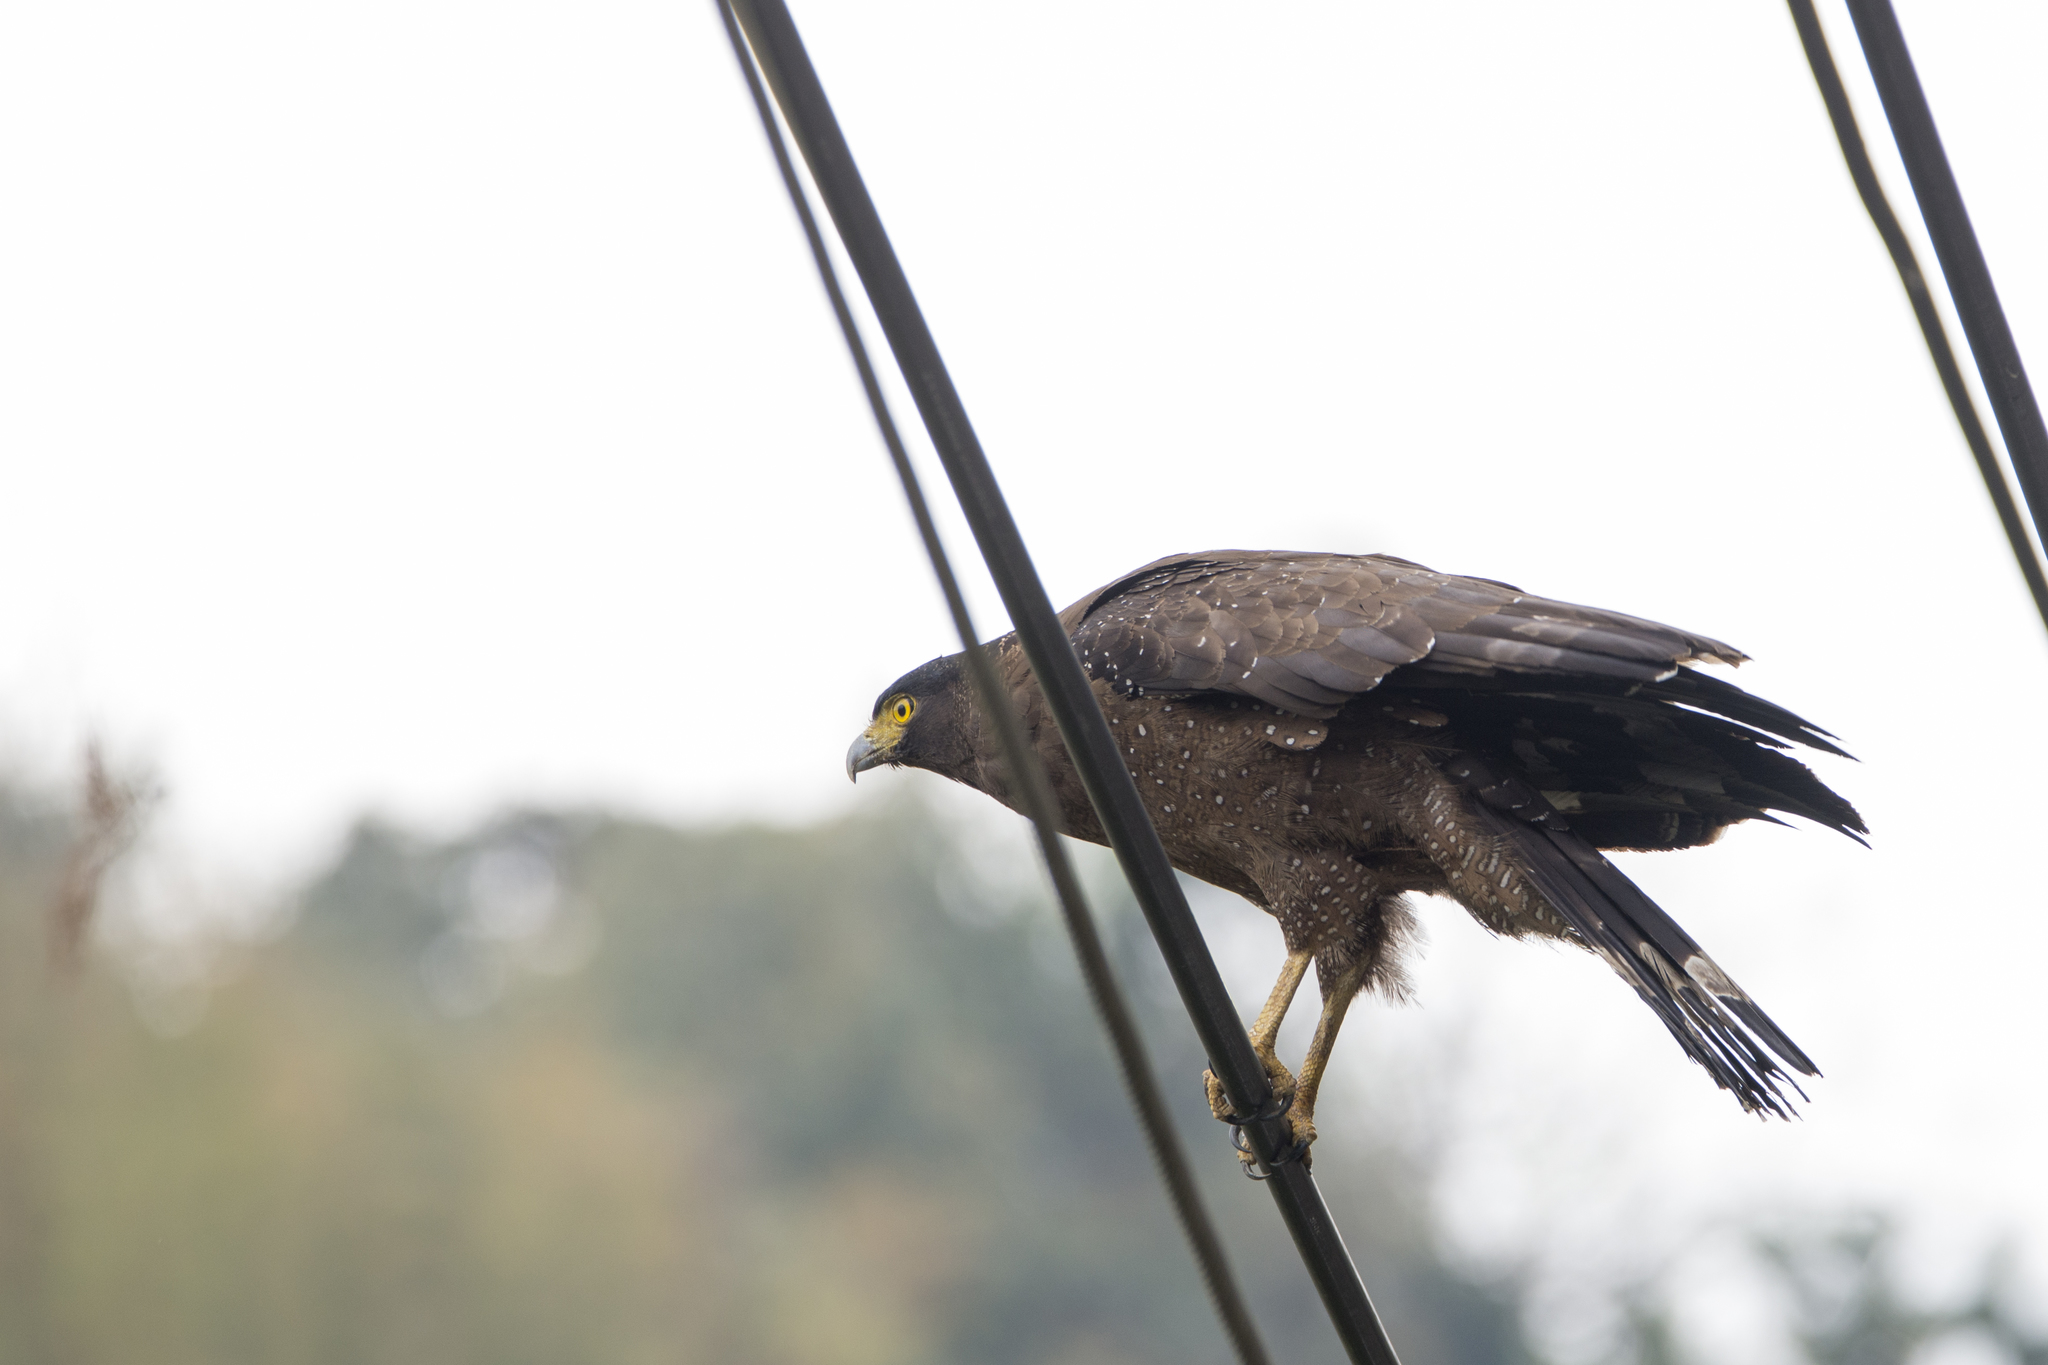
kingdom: Animalia
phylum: Chordata
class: Aves
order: Accipitriformes
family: Accipitridae
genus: Spilornis
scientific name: Spilornis cheela
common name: Crested serpent eagle
